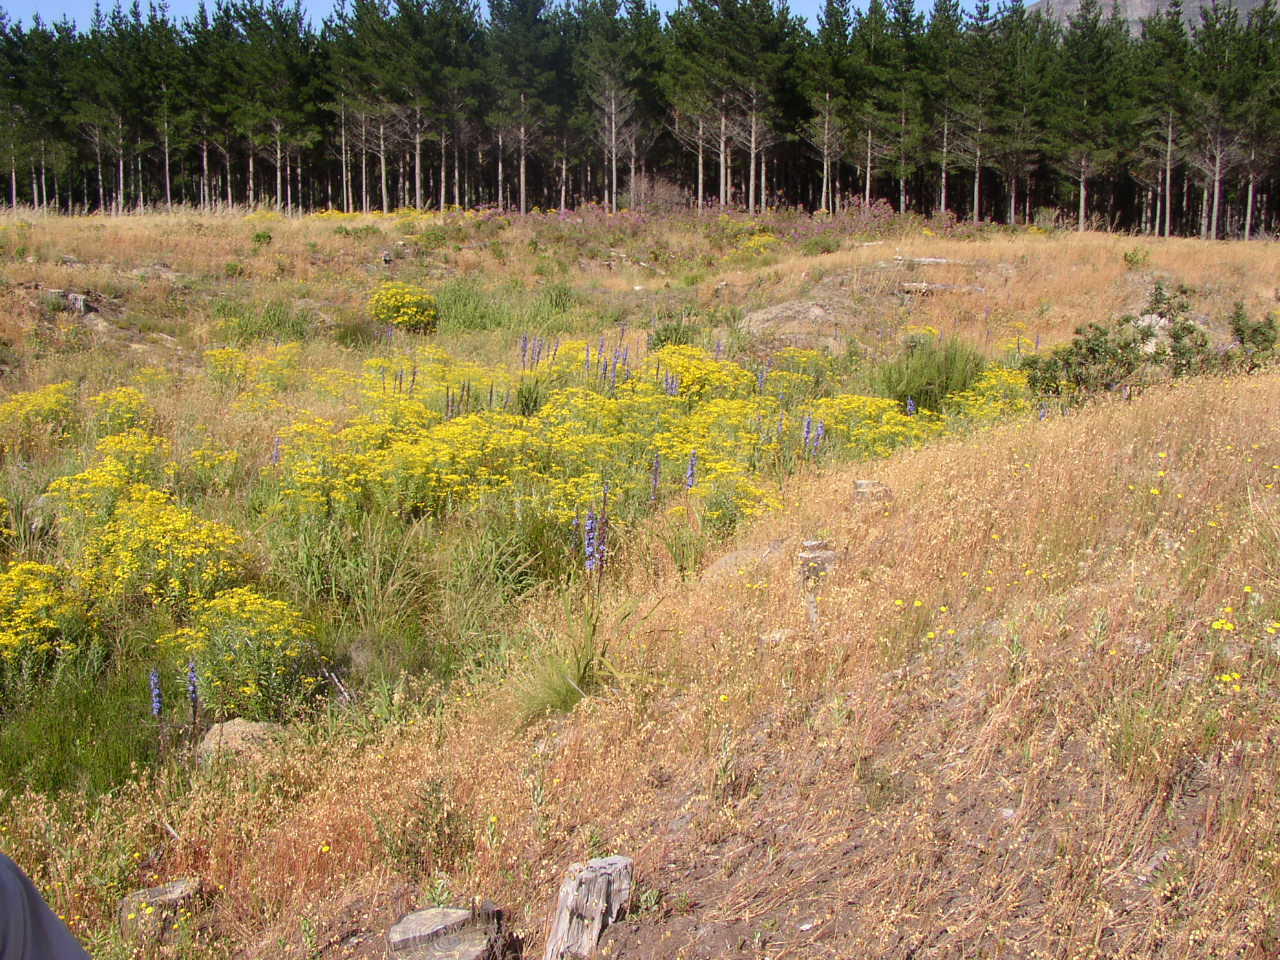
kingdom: Plantae
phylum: Tracheophyta
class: Magnoliopsida
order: Asterales
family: Asteraceae
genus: Senecio
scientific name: Senecio pterophorus
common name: Shoddy ragwort
